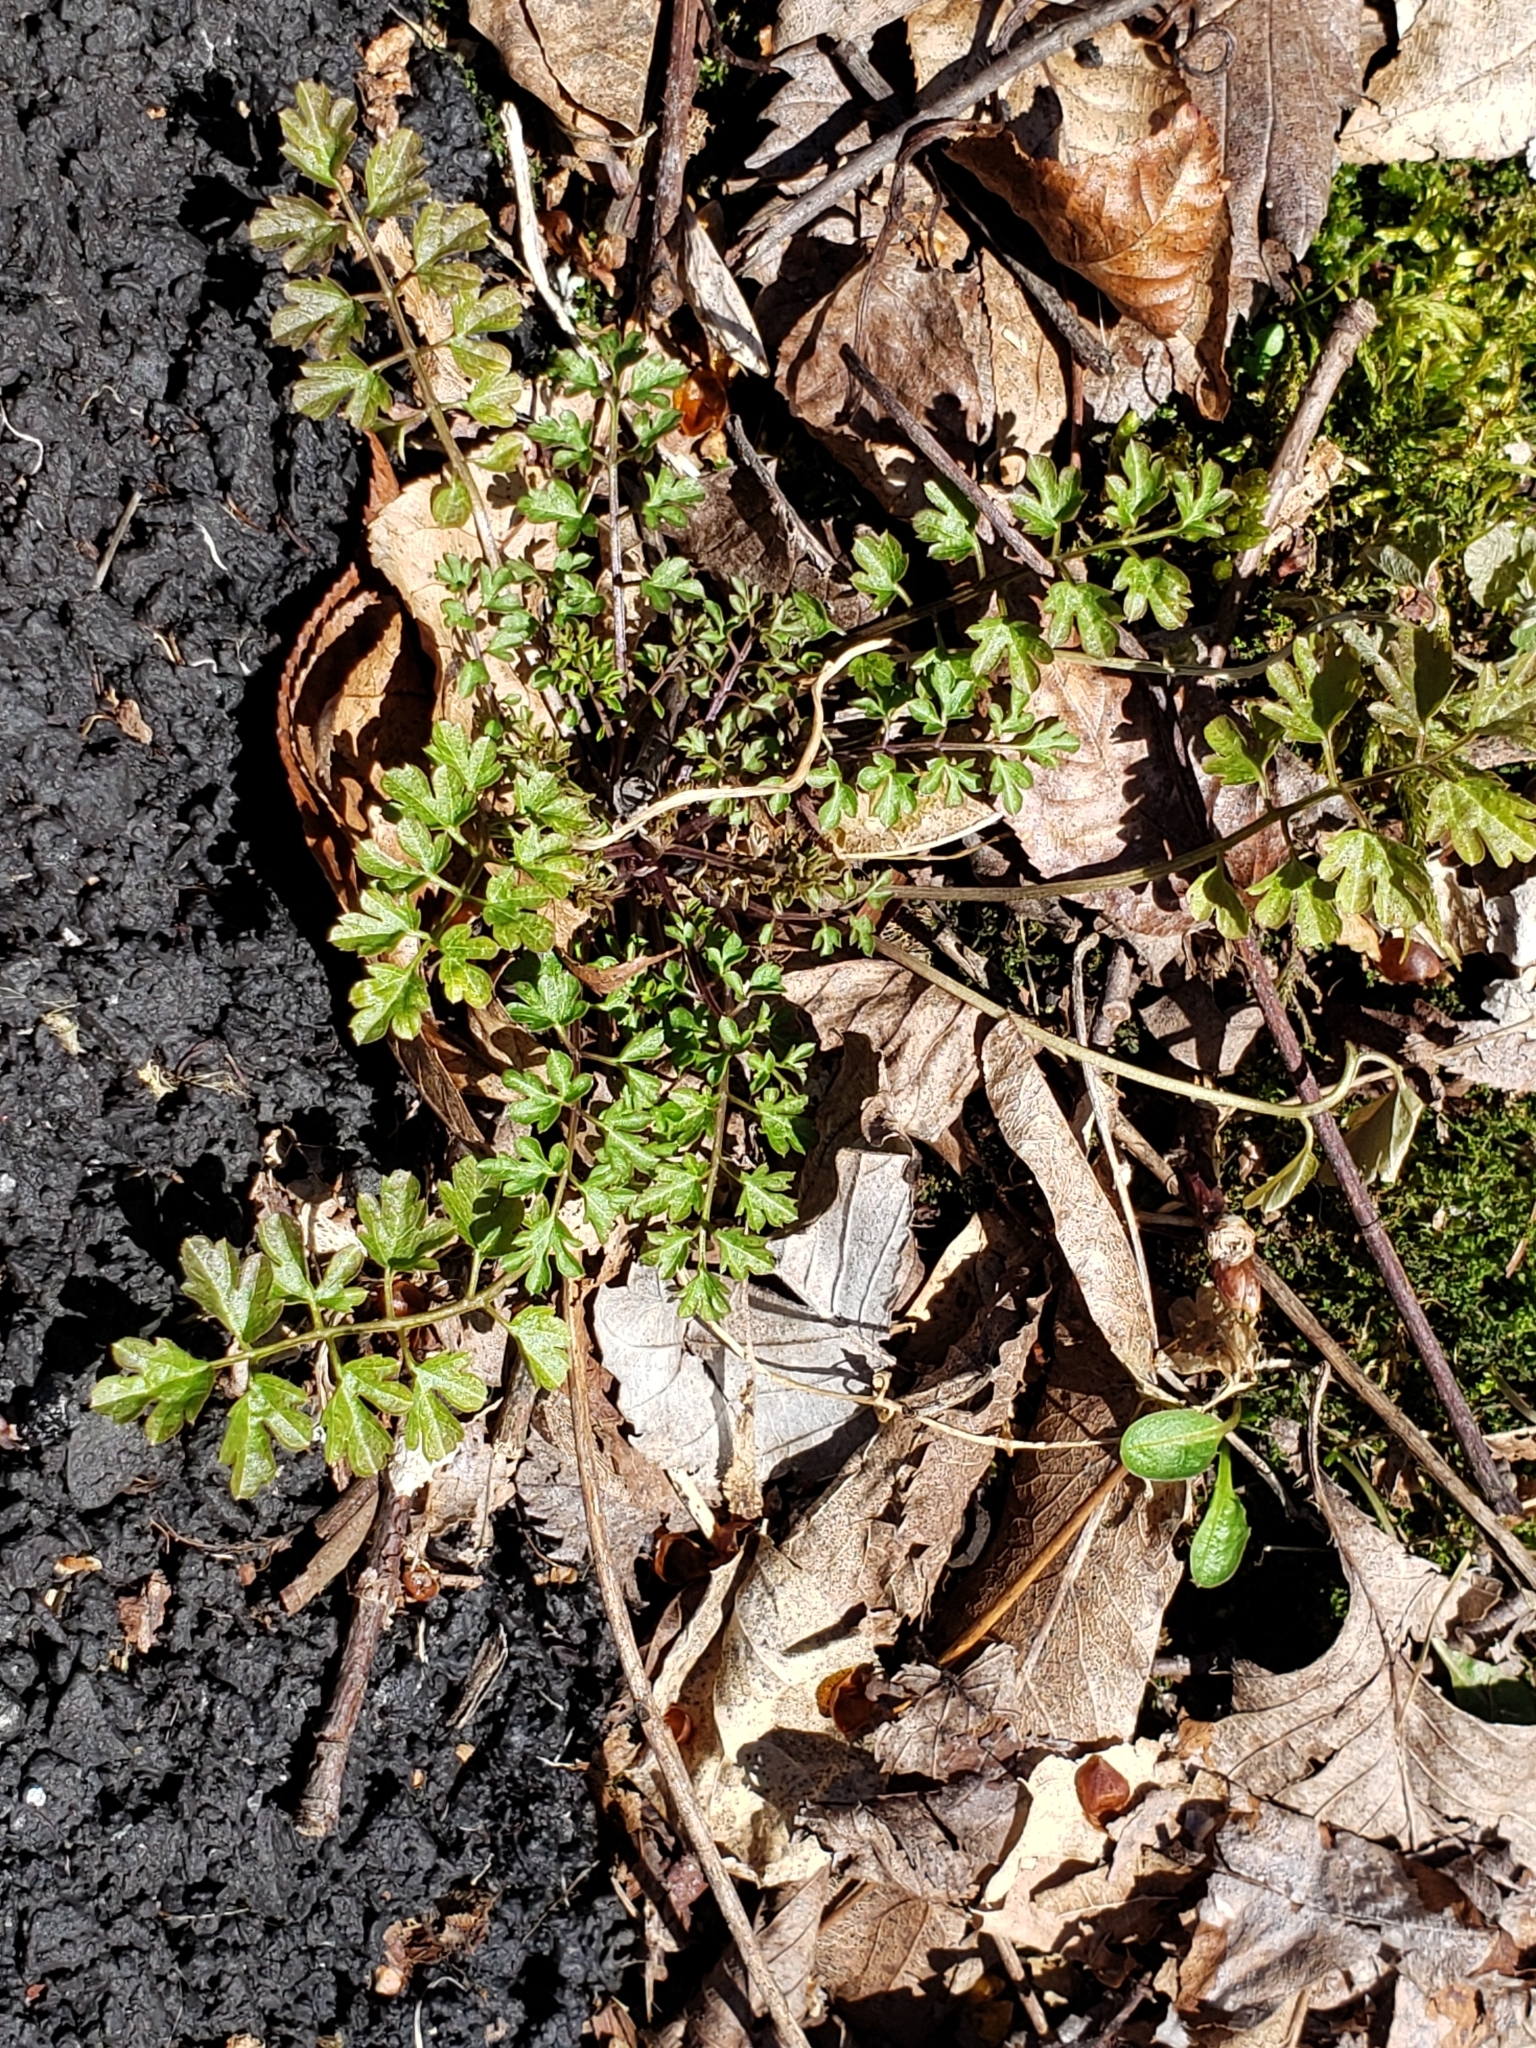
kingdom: Plantae
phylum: Tracheophyta
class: Magnoliopsida
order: Brassicales
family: Brassicaceae
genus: Cardamine
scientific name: Cardamine impatiens
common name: Narrow-leaved bitter-cress
